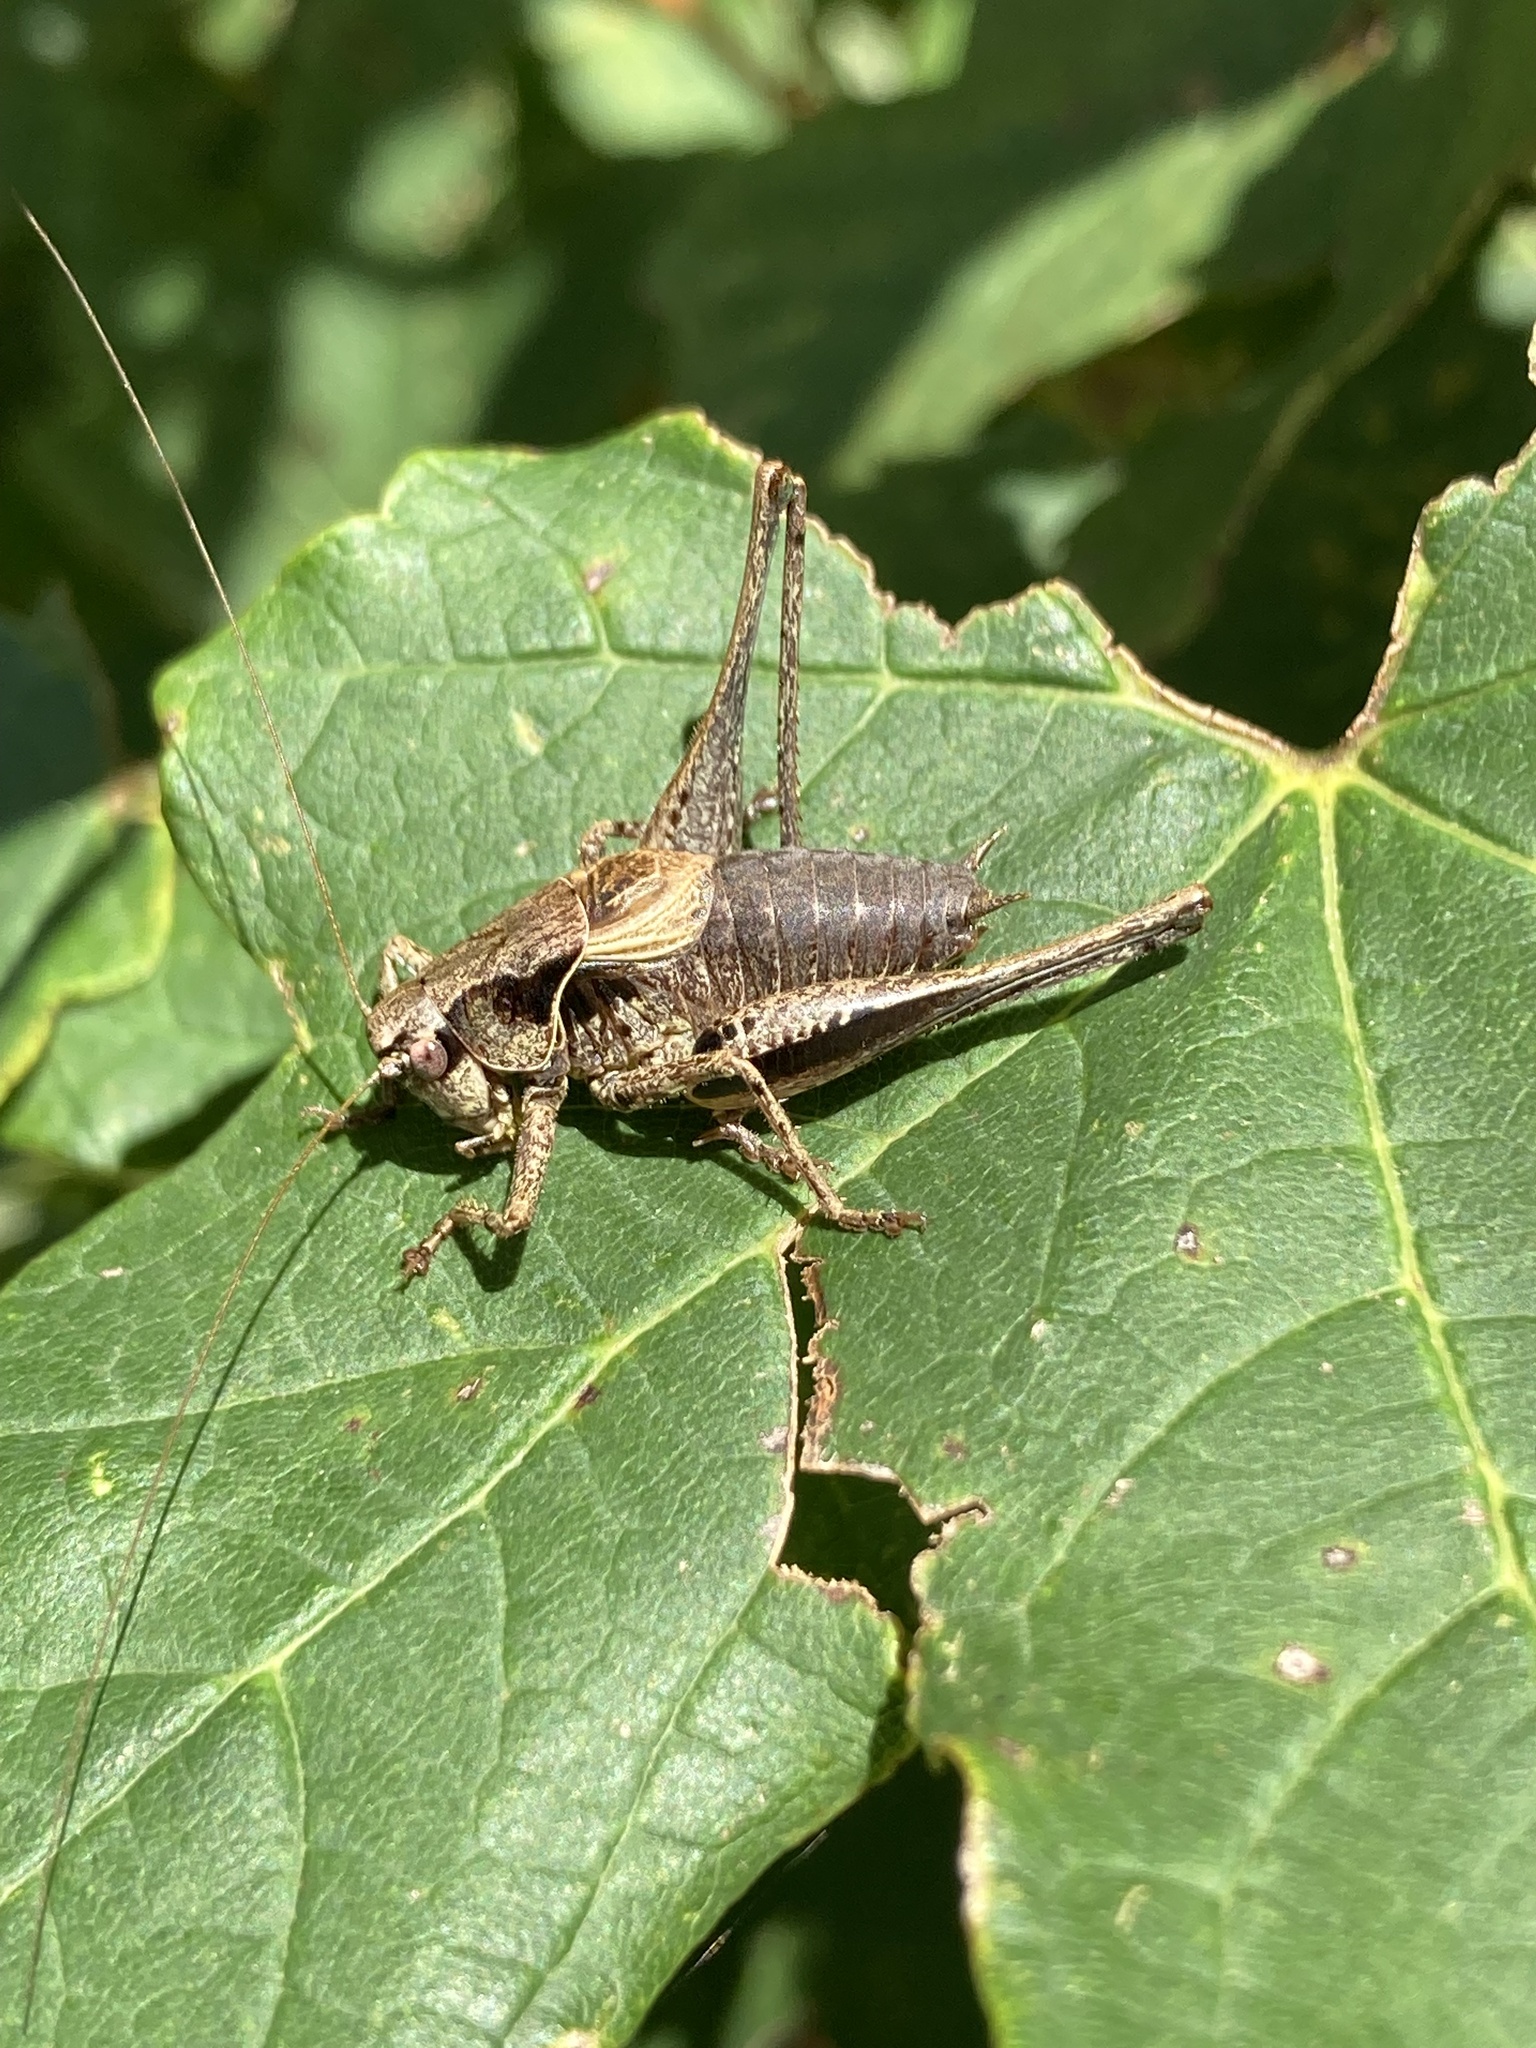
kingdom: Animalia
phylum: Arthropoda
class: Insecta
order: Orthoptera
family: Tettigoniidae
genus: Pholidoptera
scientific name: Pholidoptera griseoaptera
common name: Dark bush-cricket
